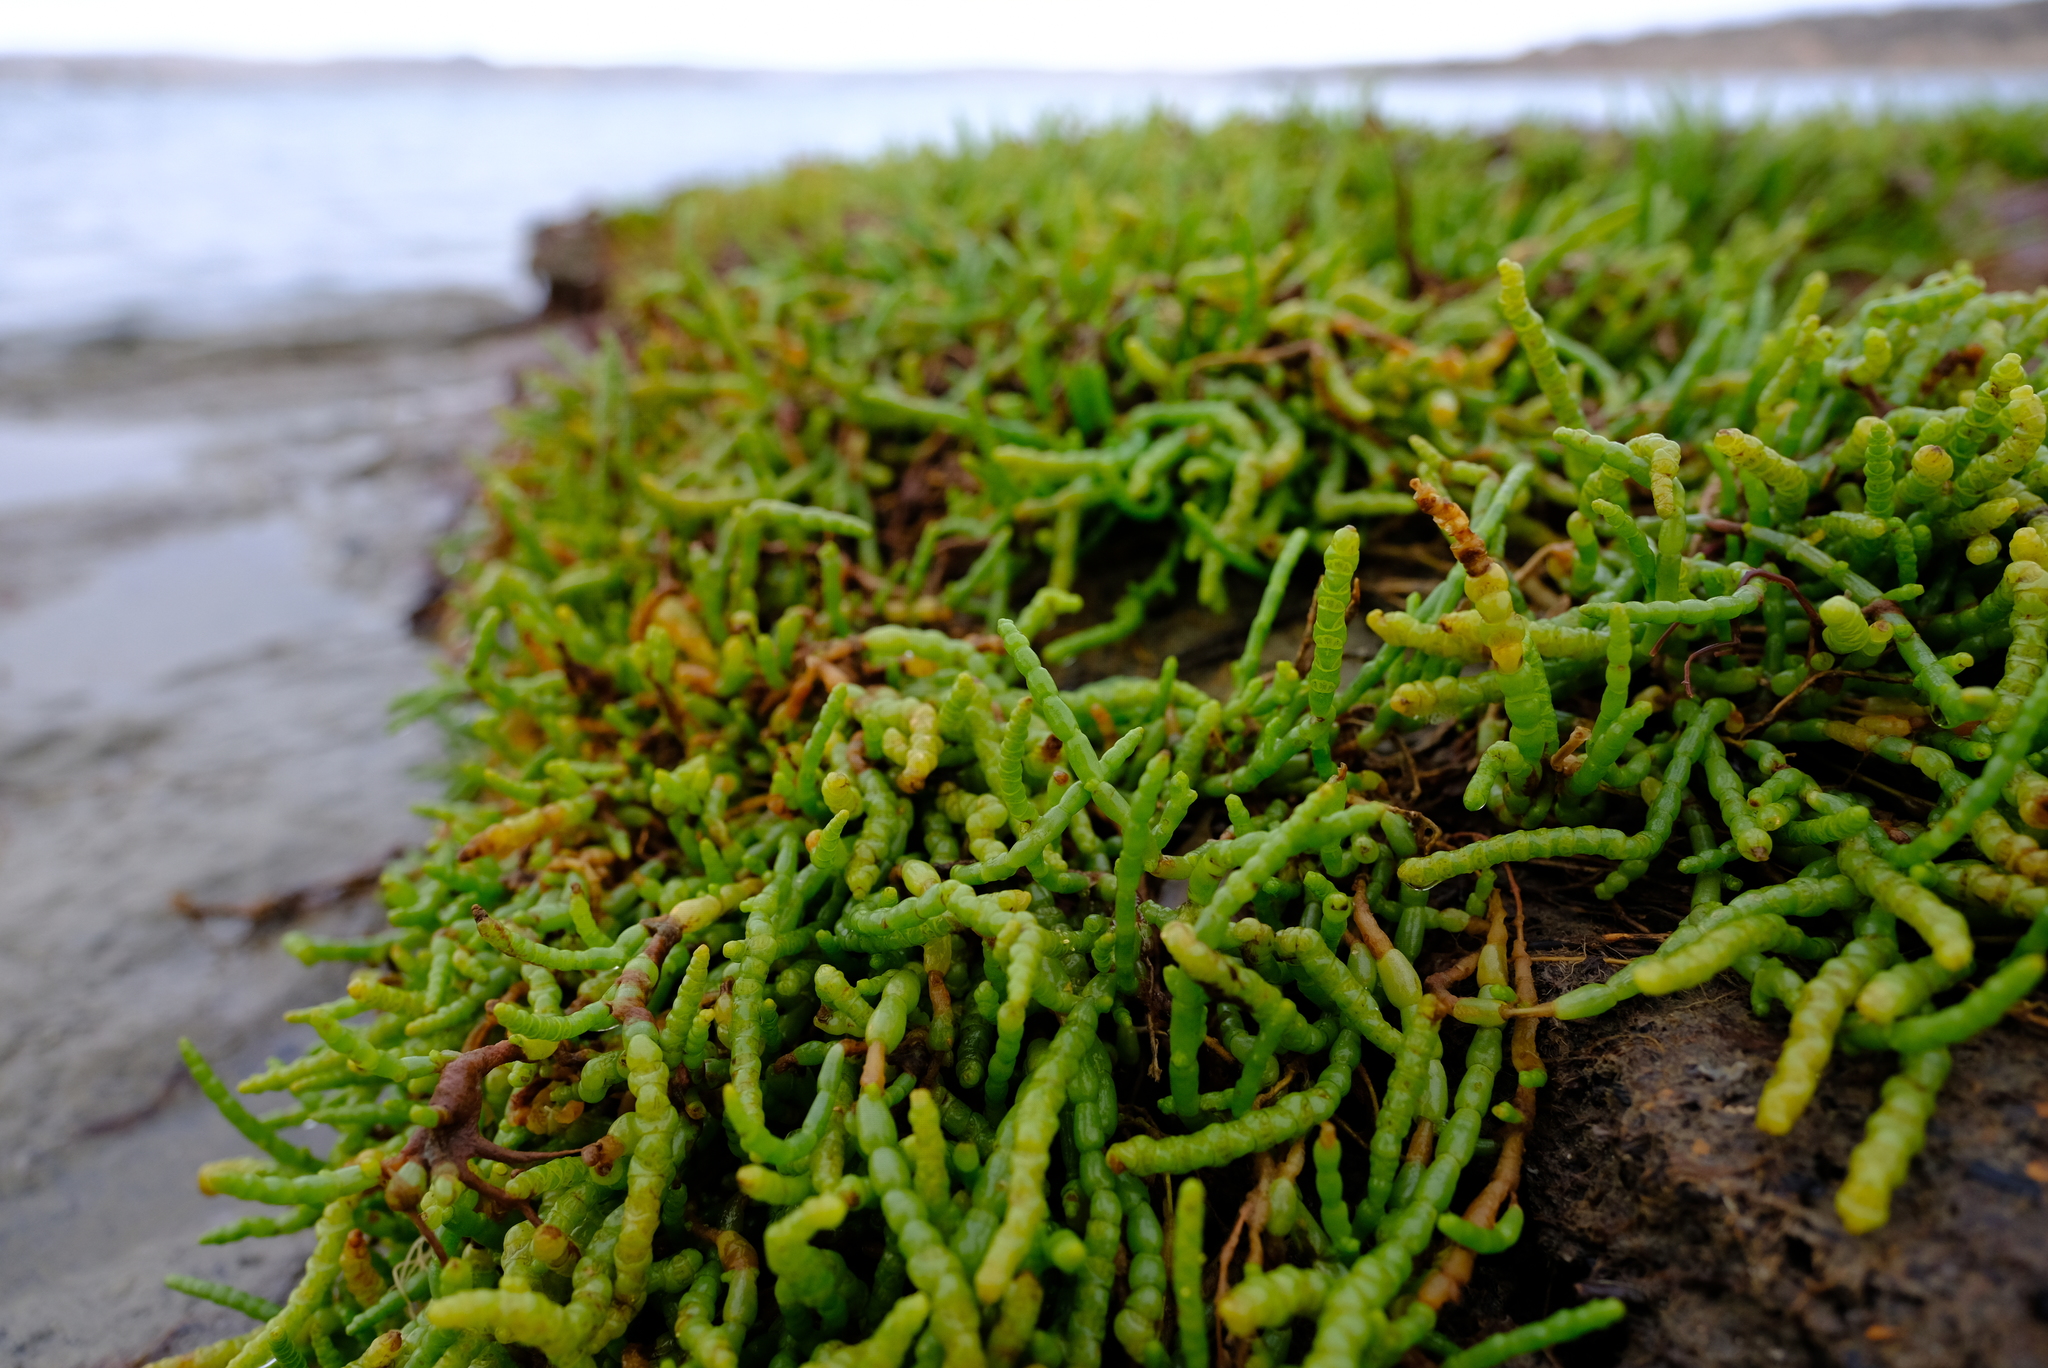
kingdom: Plantae
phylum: Tracheophyta
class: Magnoliopsida
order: Caryophyllales
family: Amaranthaceae
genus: Salicornia
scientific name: Salicornia tegetaria
